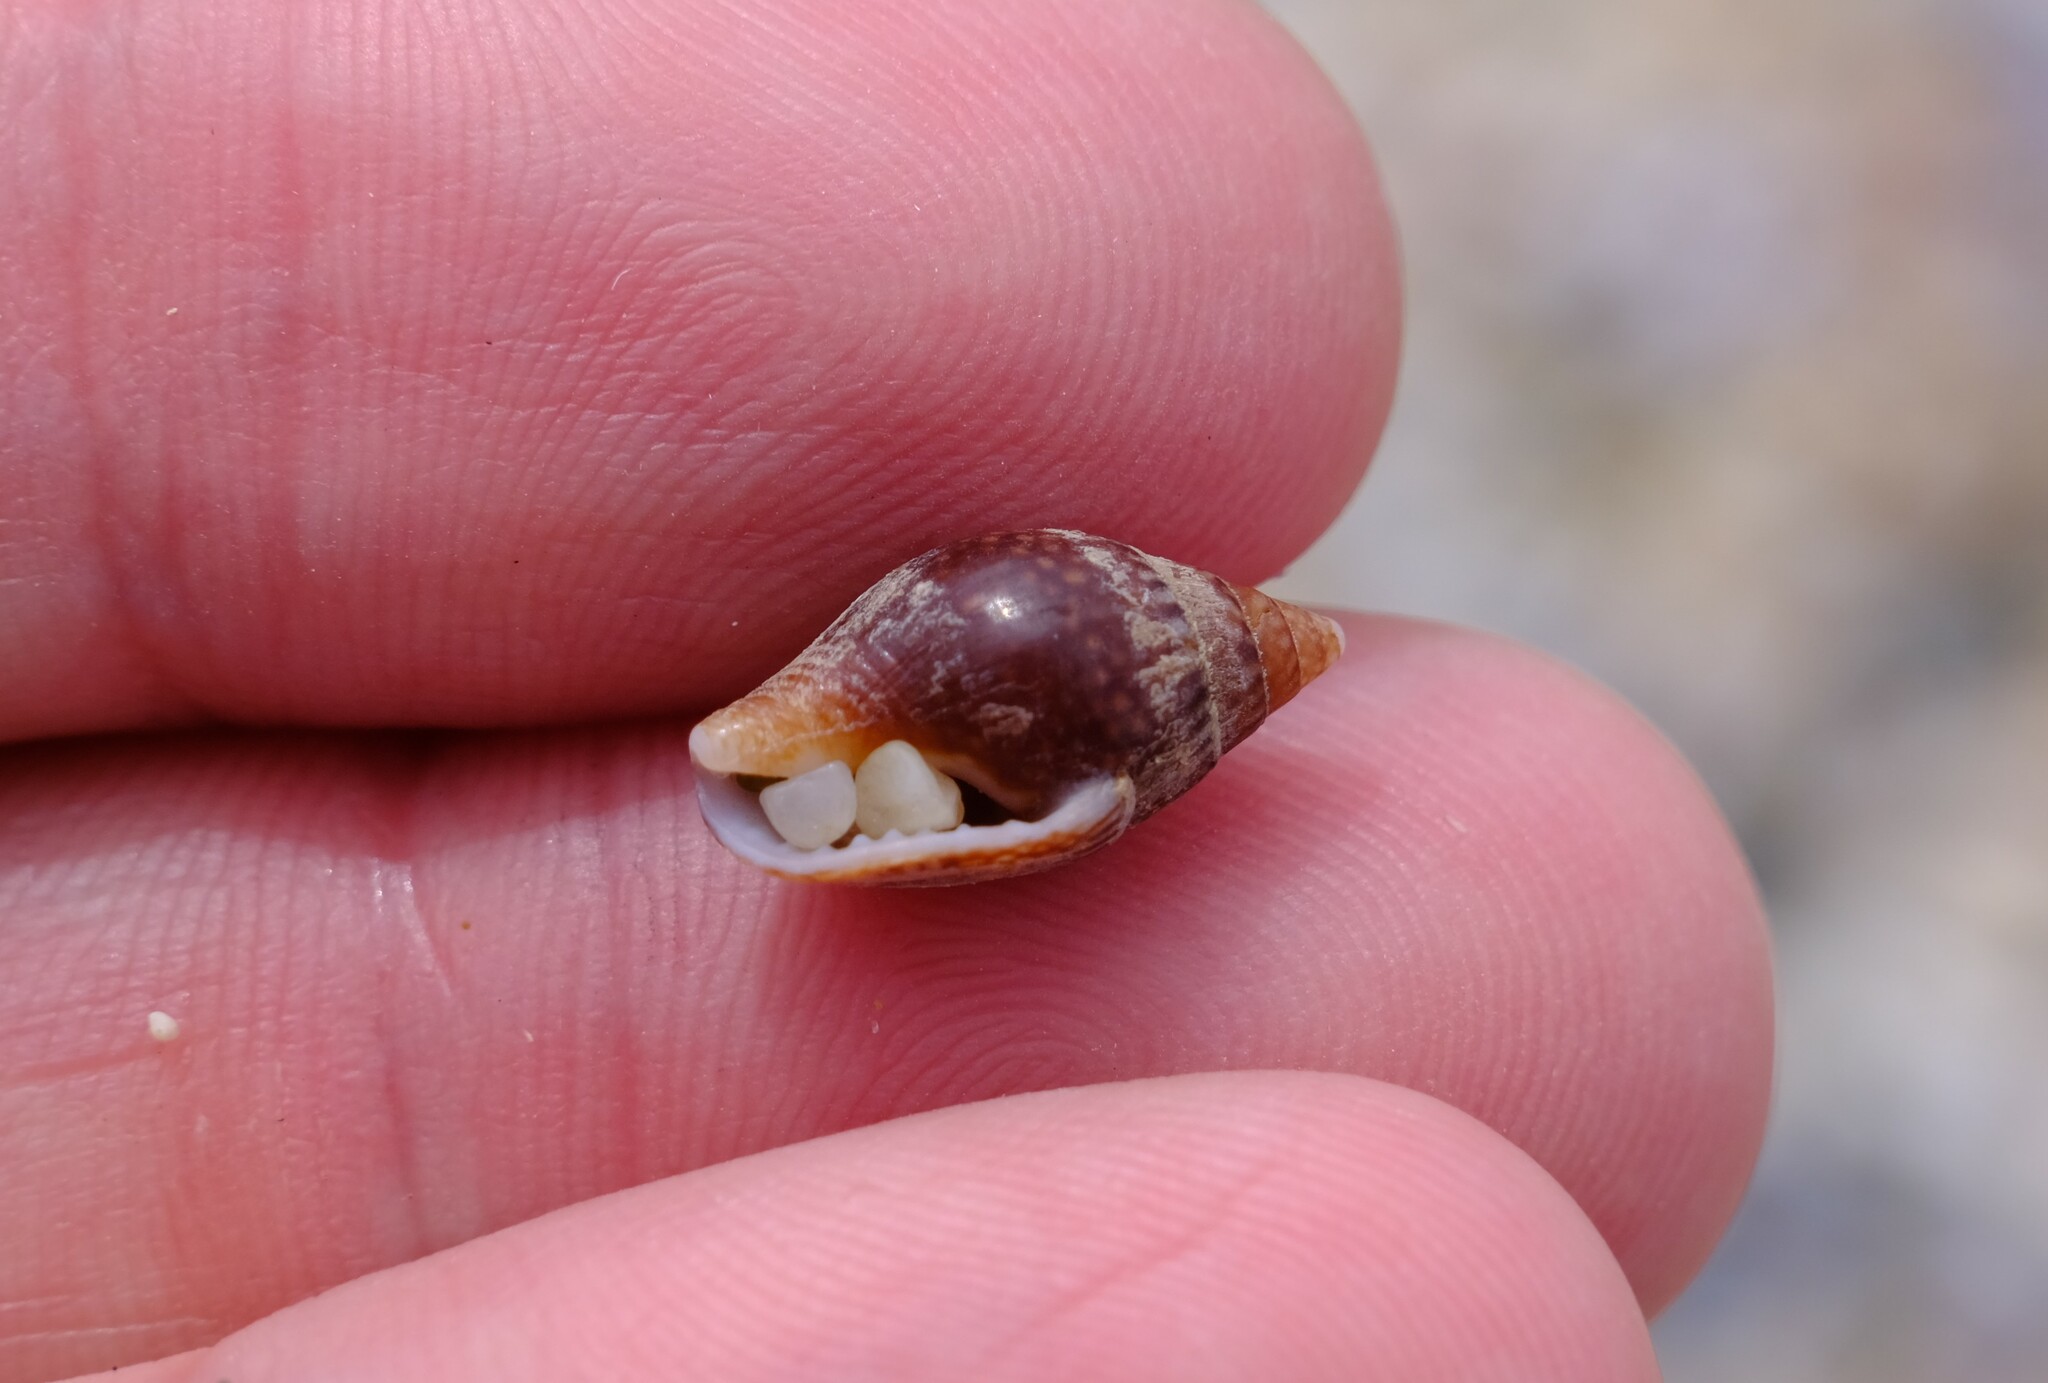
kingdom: Animalia
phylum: Mollusca
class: Gastropoda
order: Neogastropoda
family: Columbellidae
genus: Pardalinops de
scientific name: Pardalinops de Pardalinops testudinaria
